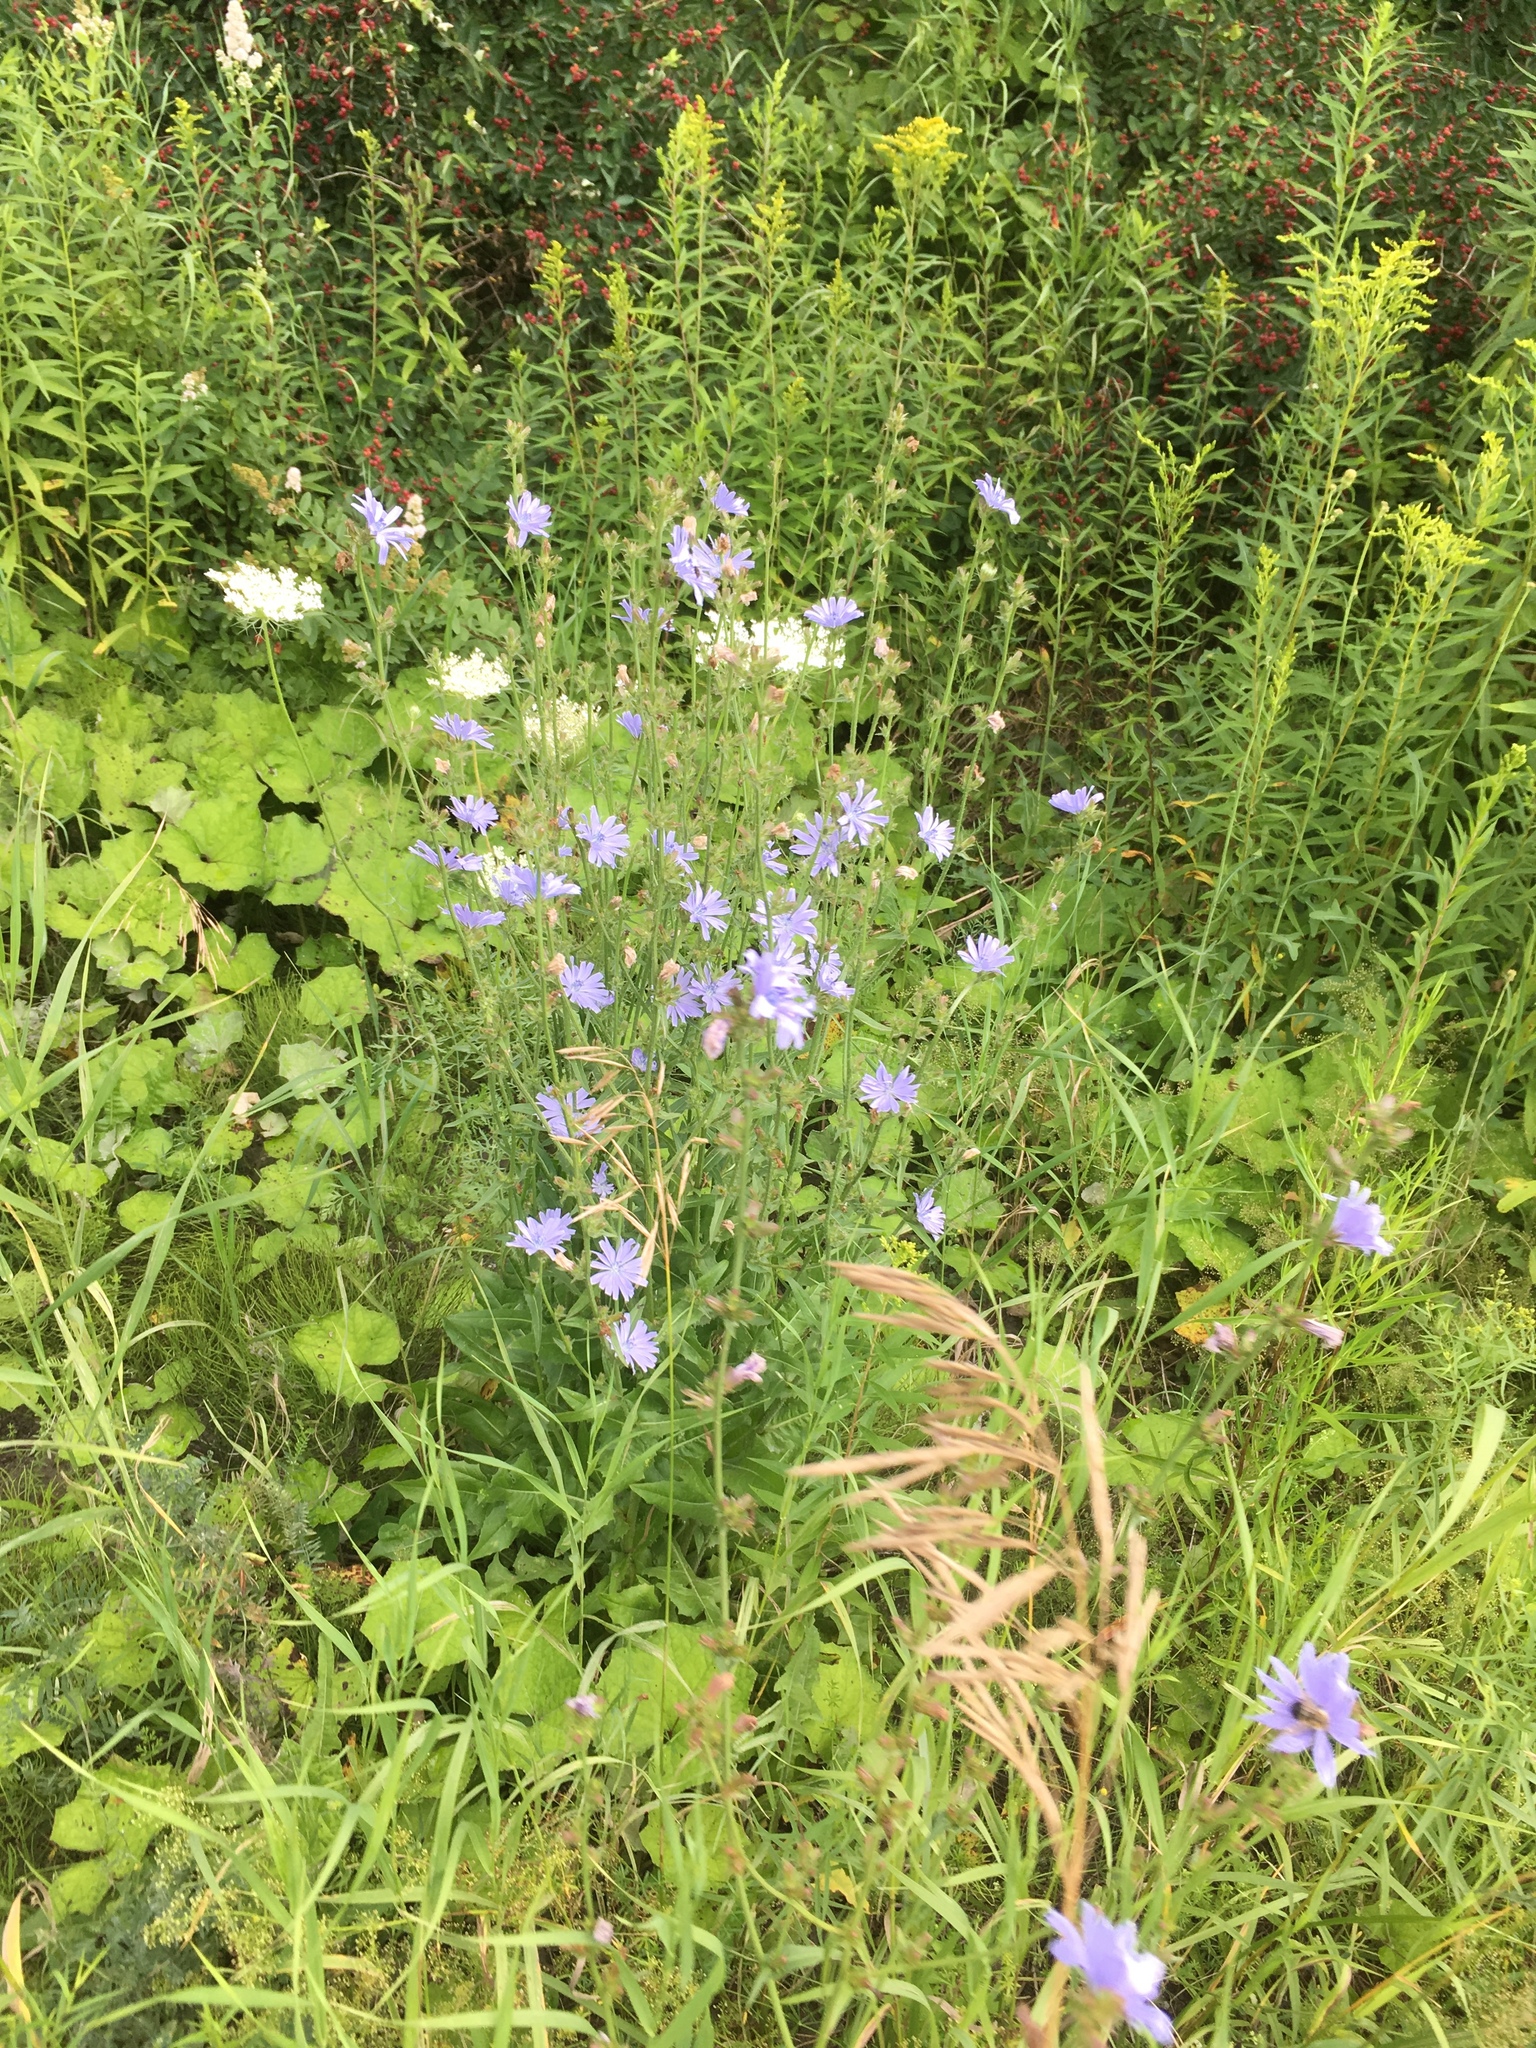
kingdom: Plantae
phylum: Tracheophyta
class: Magnoliopsida
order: Asterales
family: Asteraceae
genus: Cichorium
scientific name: Cichorium intybus
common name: Chicory
